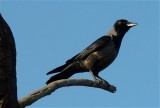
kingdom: Animalia
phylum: Chordata
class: Aves
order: Passeriformes
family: Corvidae
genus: Corvus
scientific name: Corvus
